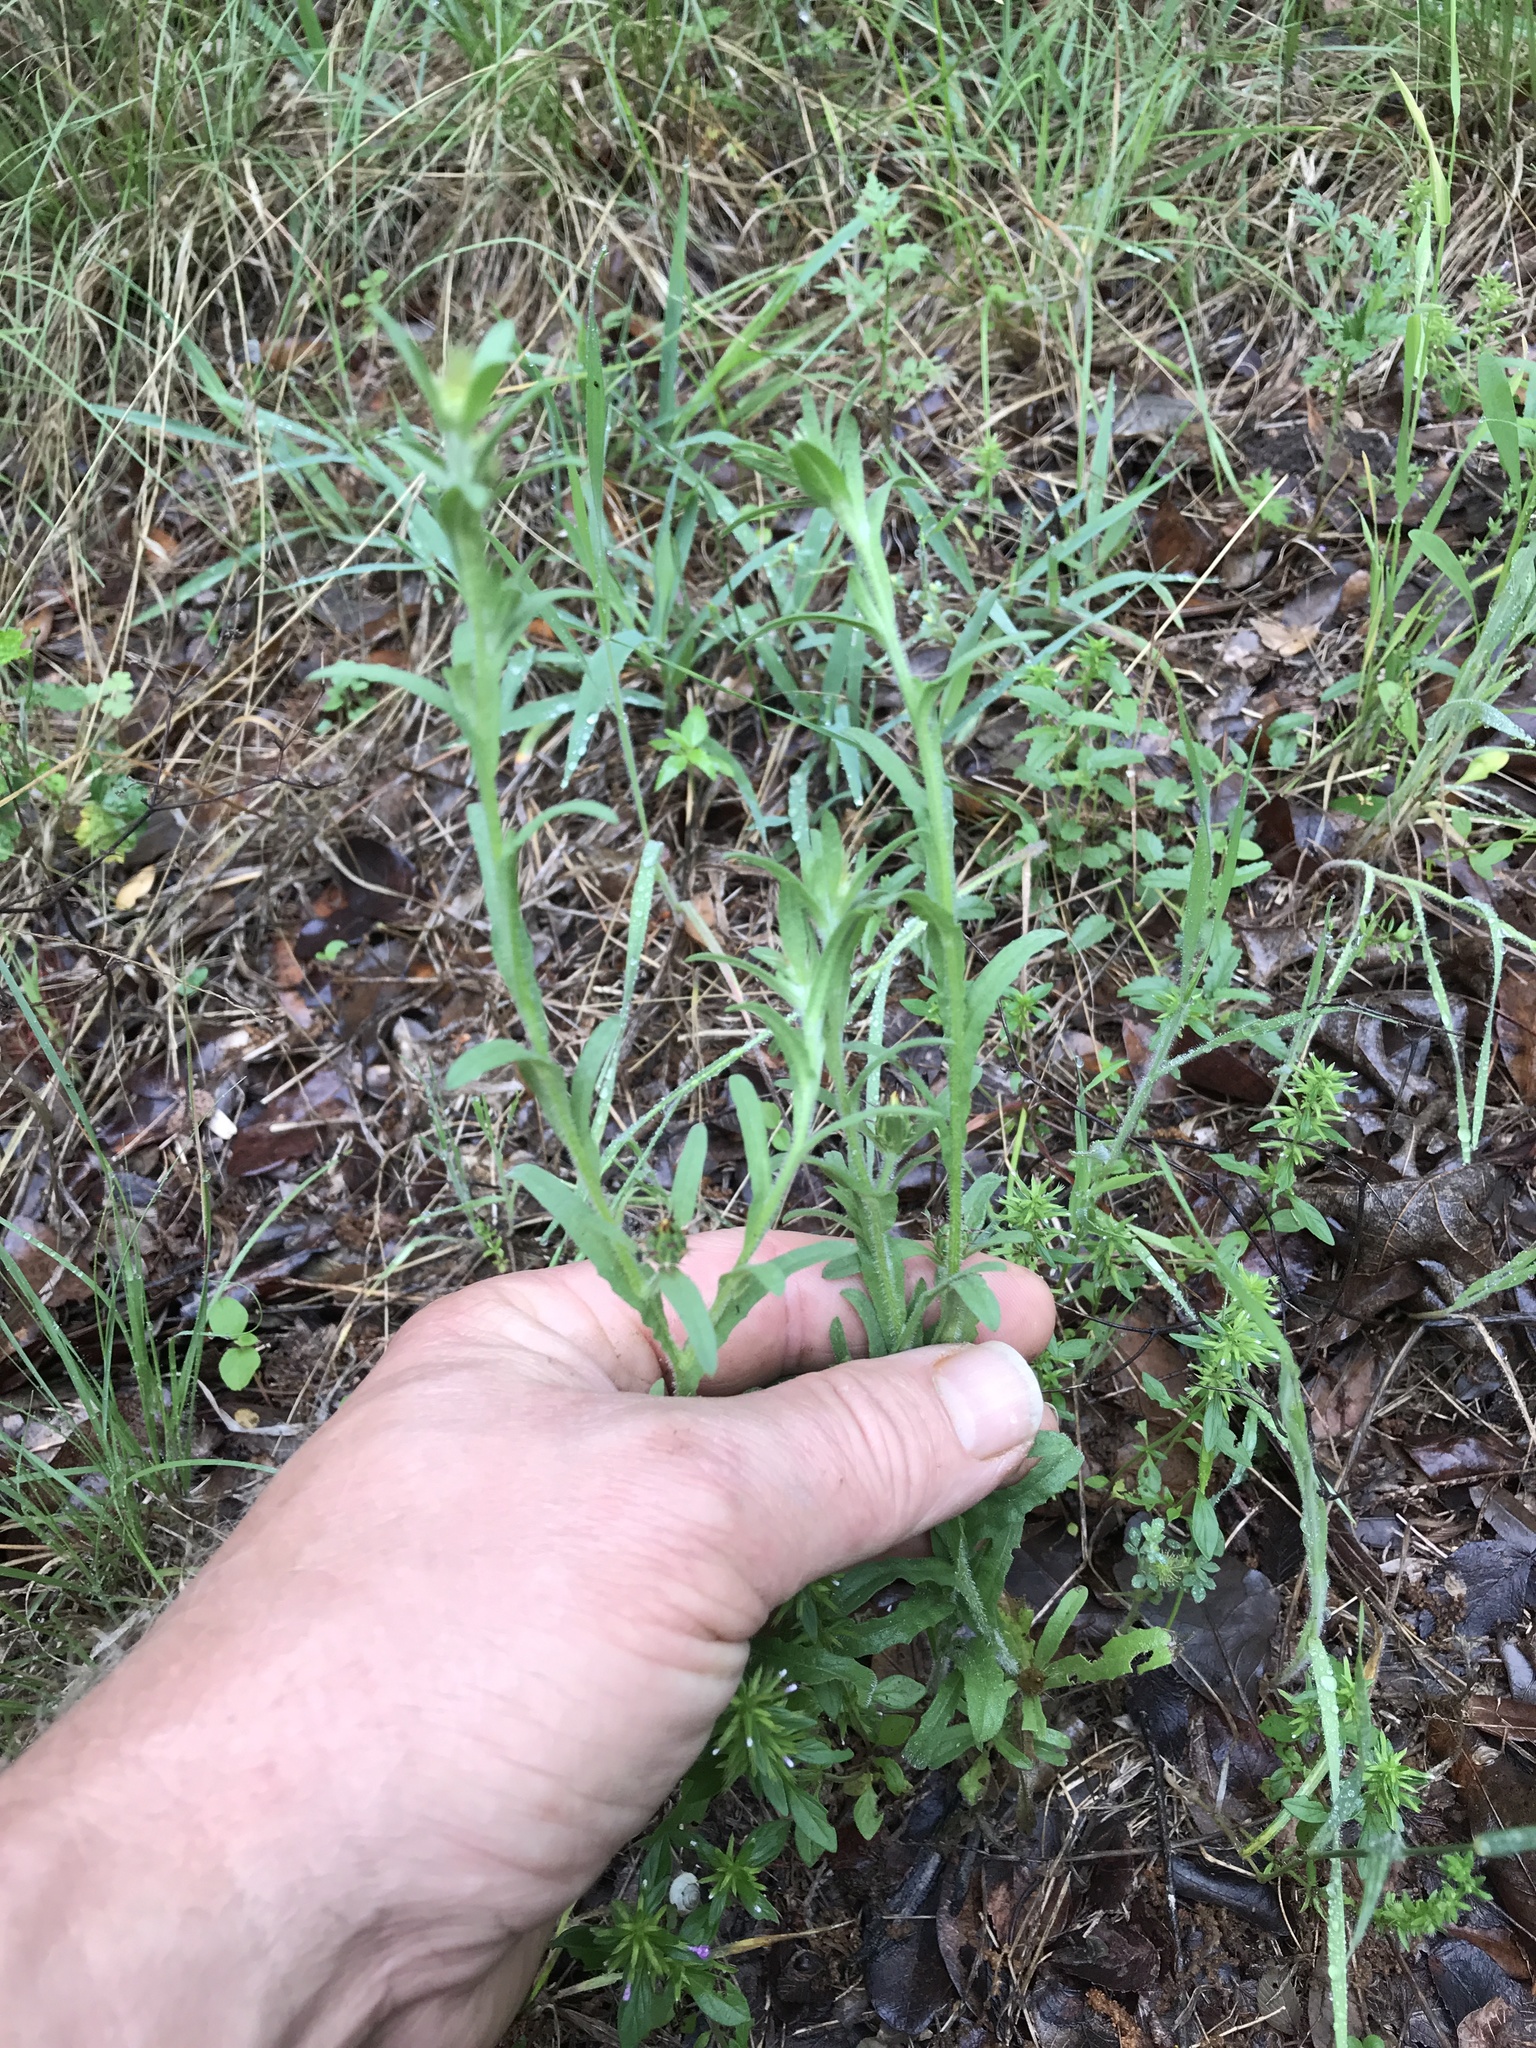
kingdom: Plantae
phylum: Tracheophyta
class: Magnoliopsida
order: Asterales
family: Asteraceae
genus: Centaurea
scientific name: Centaurea melitensis
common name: Maltese star-thistle
